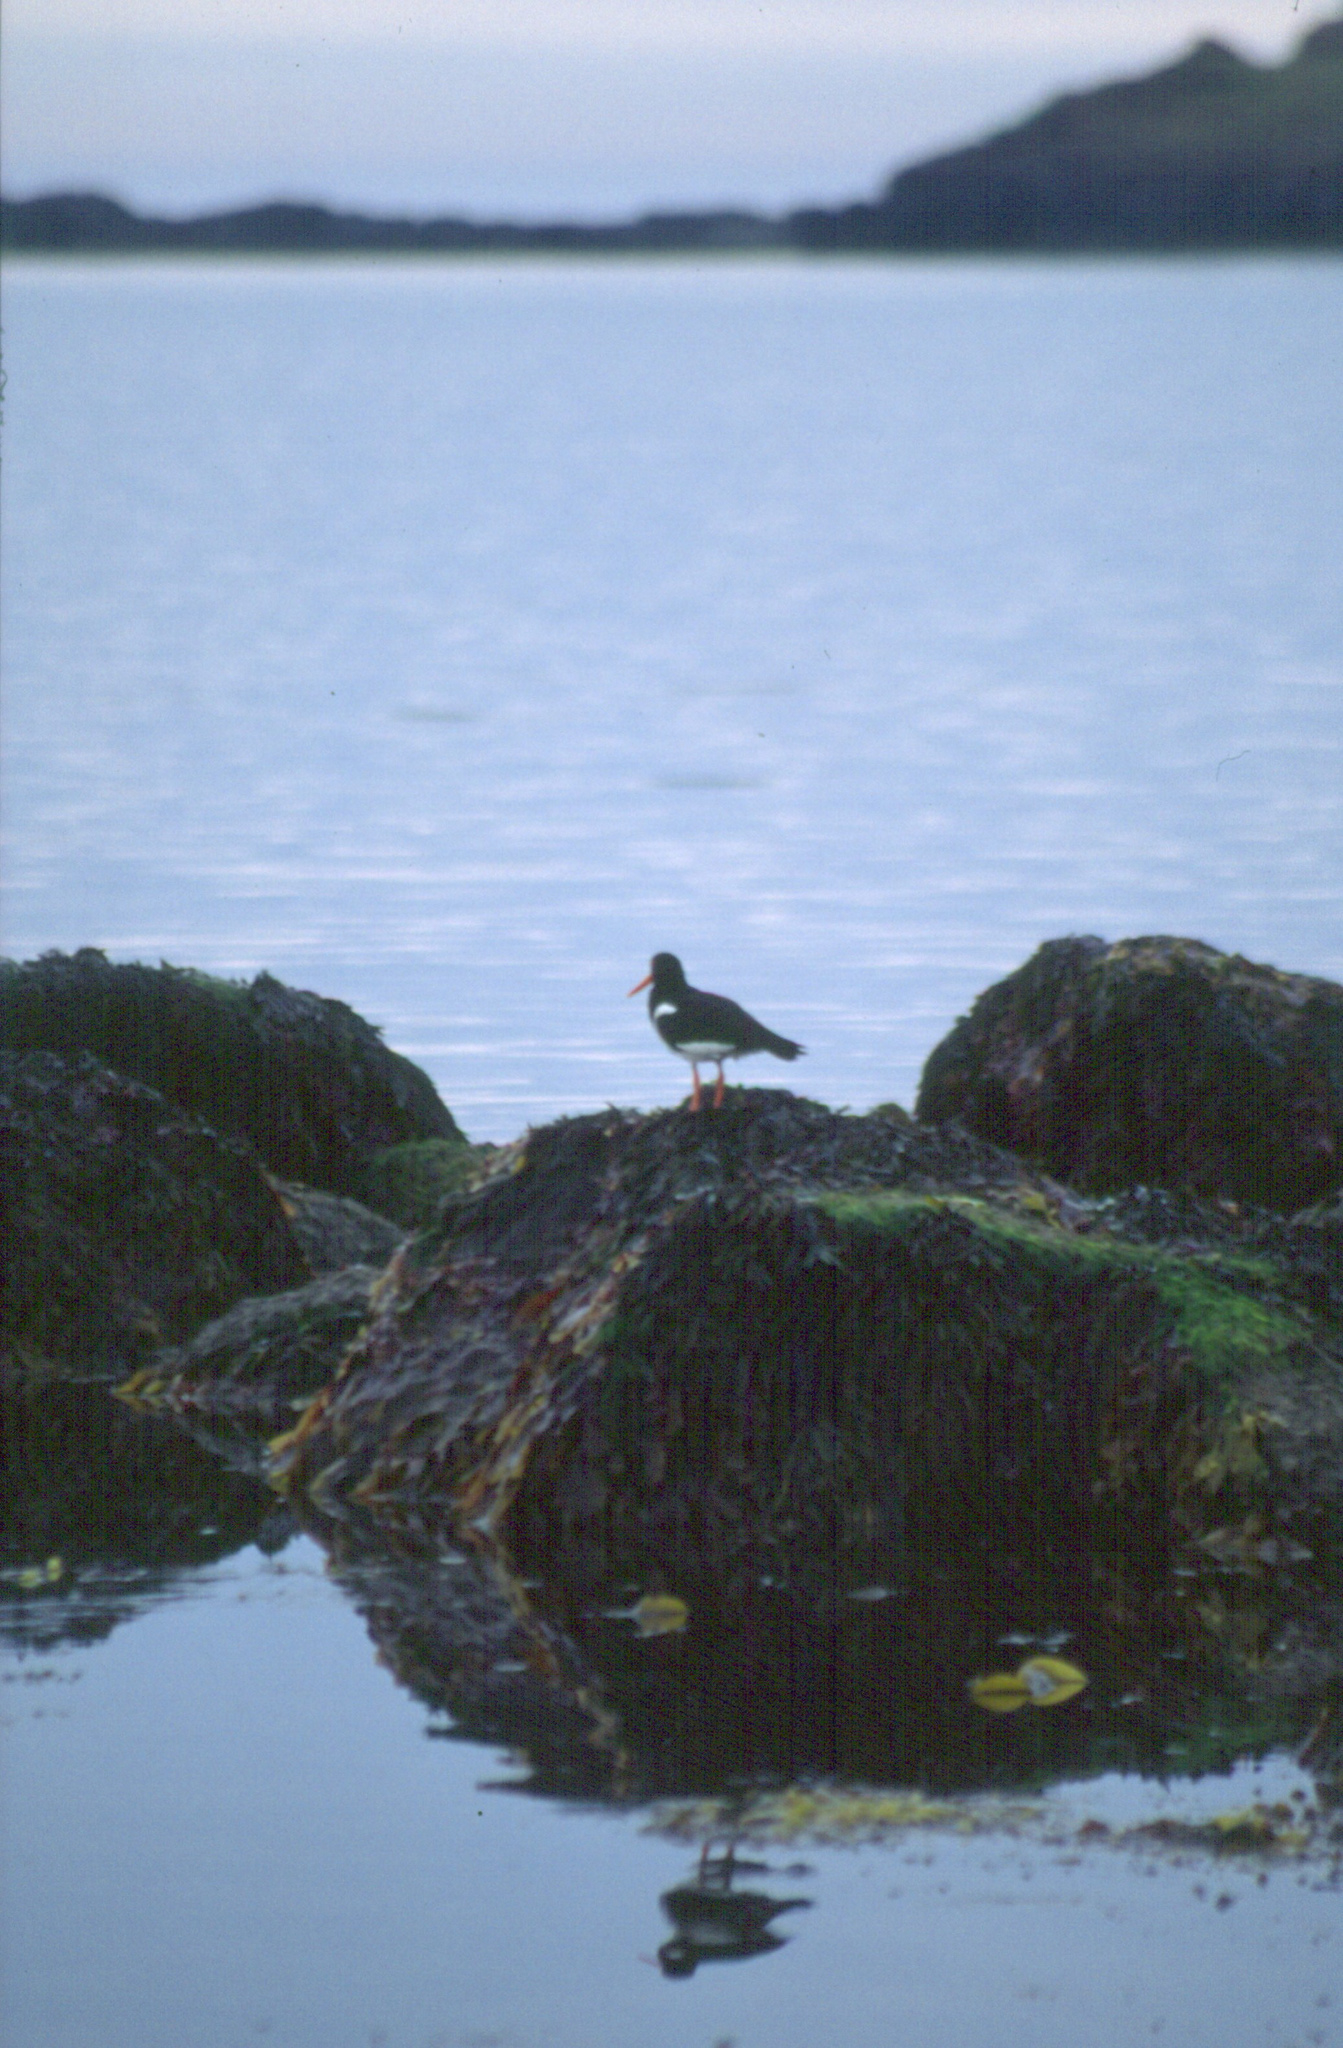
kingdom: Animalia
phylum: Chordata
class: Aves
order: Charadriiformes
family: Haematopodidae
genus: Haematopus
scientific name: Haematopus ostralegus
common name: Eurasian oystercatcher
